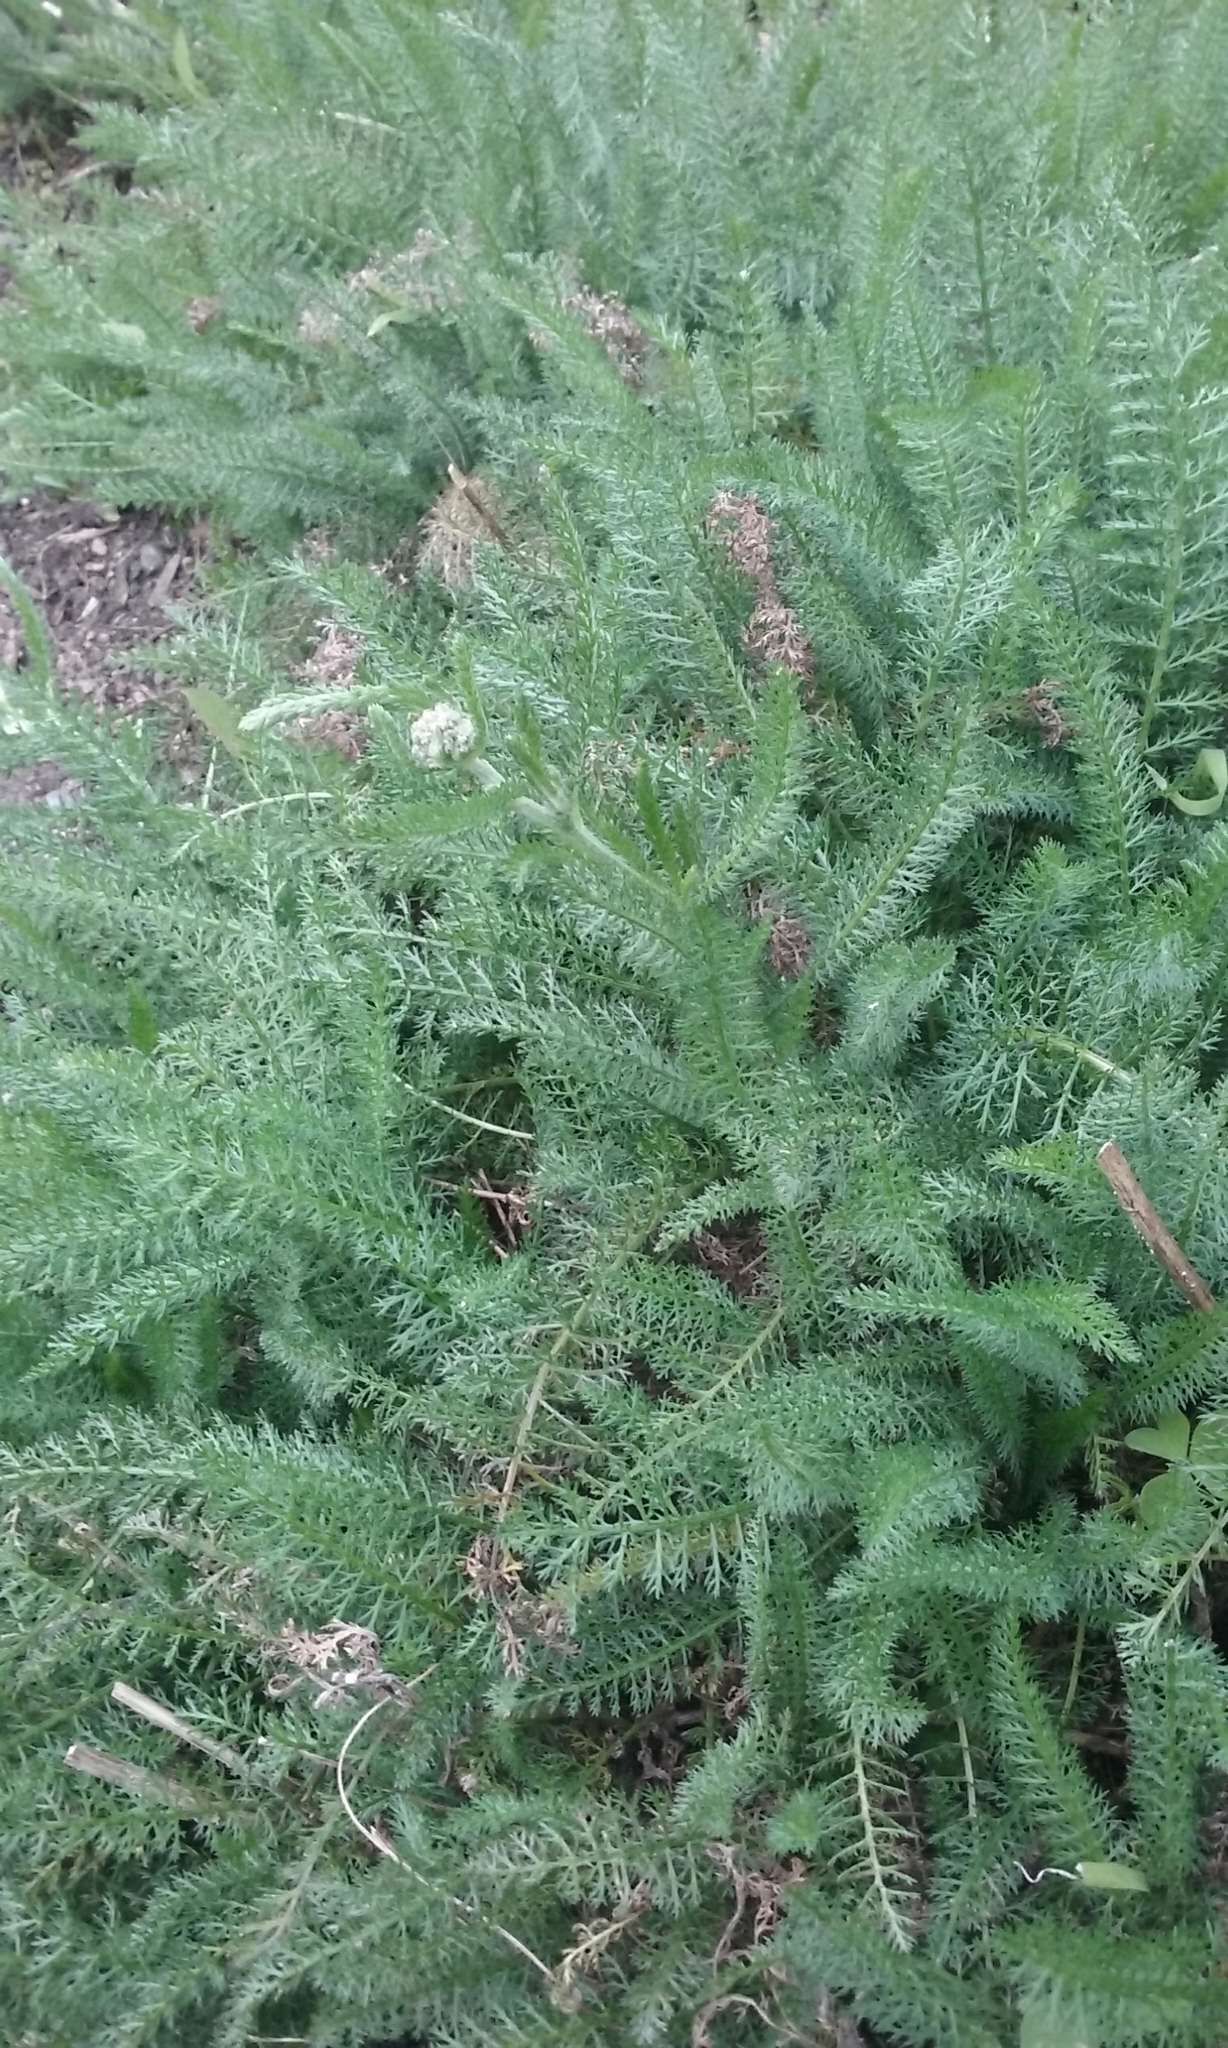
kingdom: Plantae
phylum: Tracheophyta
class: Magnoliopsida
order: Asterales
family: Asteraceae
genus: Achillea
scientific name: Achillea millefolium
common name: Yarrow
